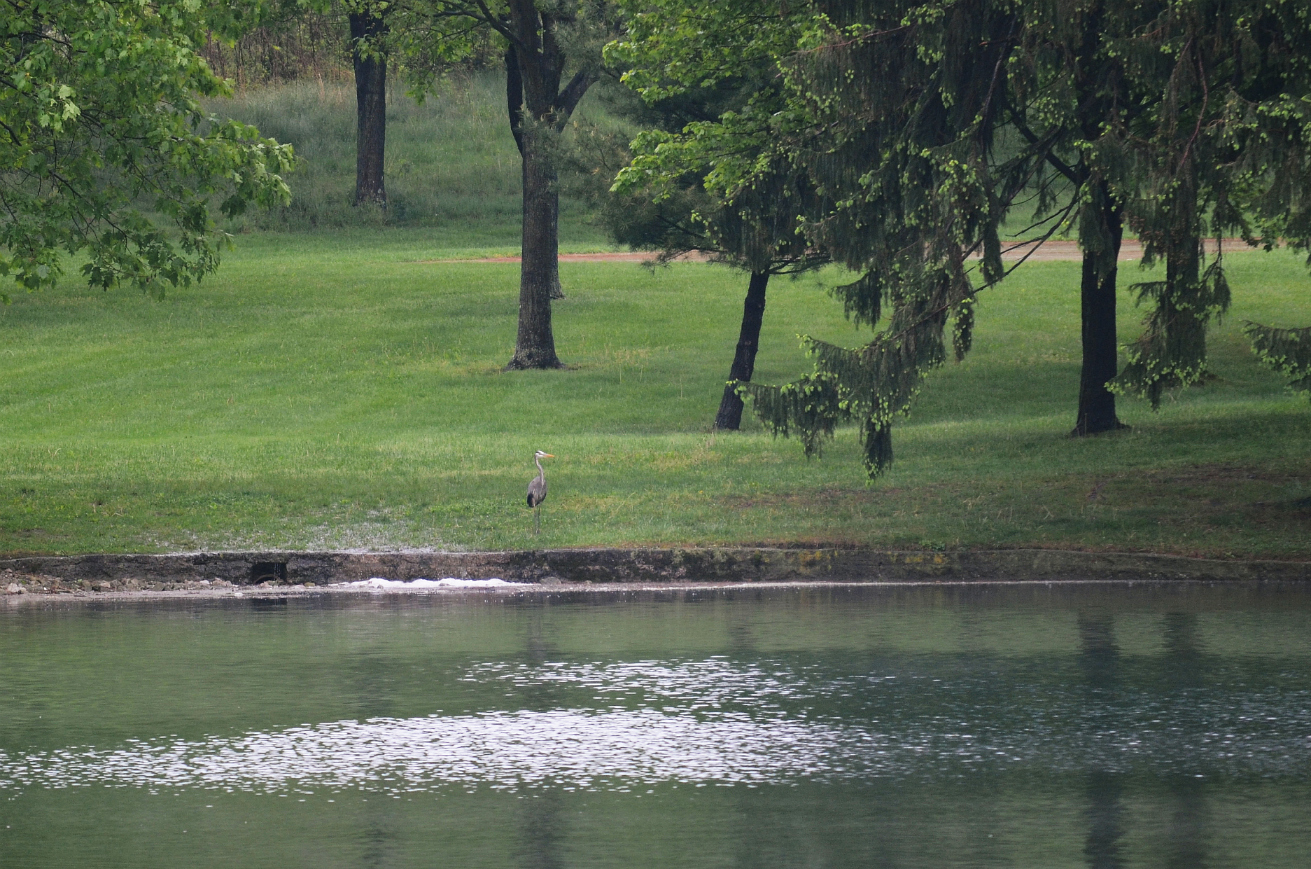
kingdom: Animalia
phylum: Chordata
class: Aves
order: Pelecaniformes
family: Ardeidae
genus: Ardea
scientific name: Ardea herodias
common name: Great blue heron
